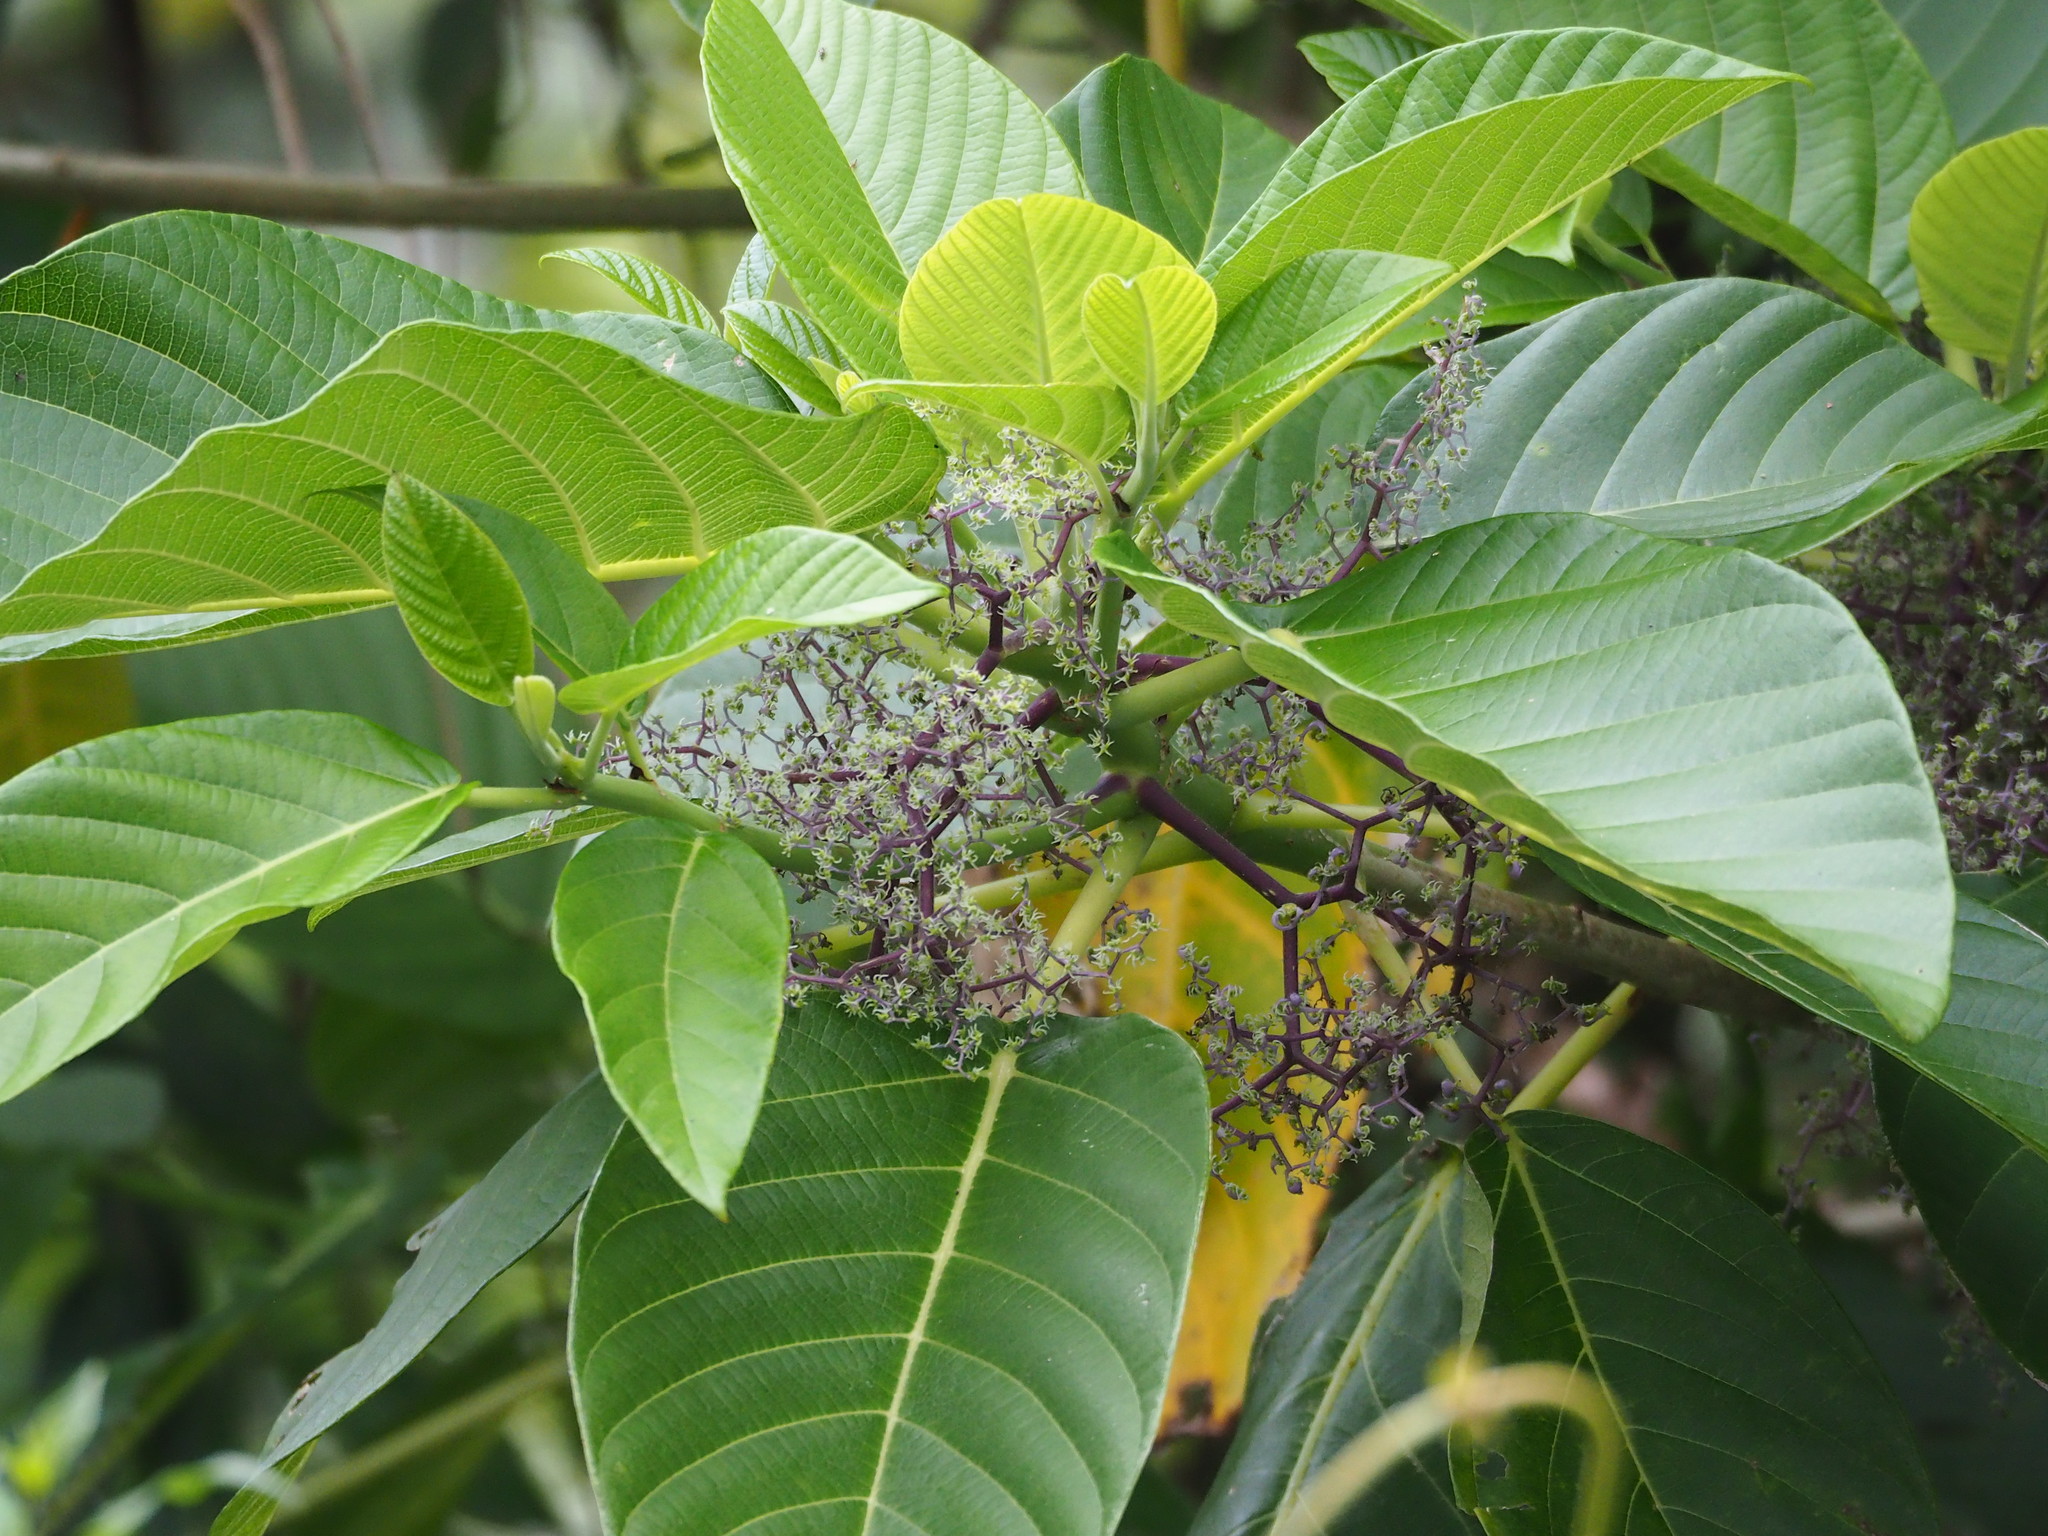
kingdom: Plantae
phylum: Tracheophyta
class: Magnoliopsida
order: Rosales
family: Urticaceae
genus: Dendrocnide
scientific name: Dendrocnide meyeniana
